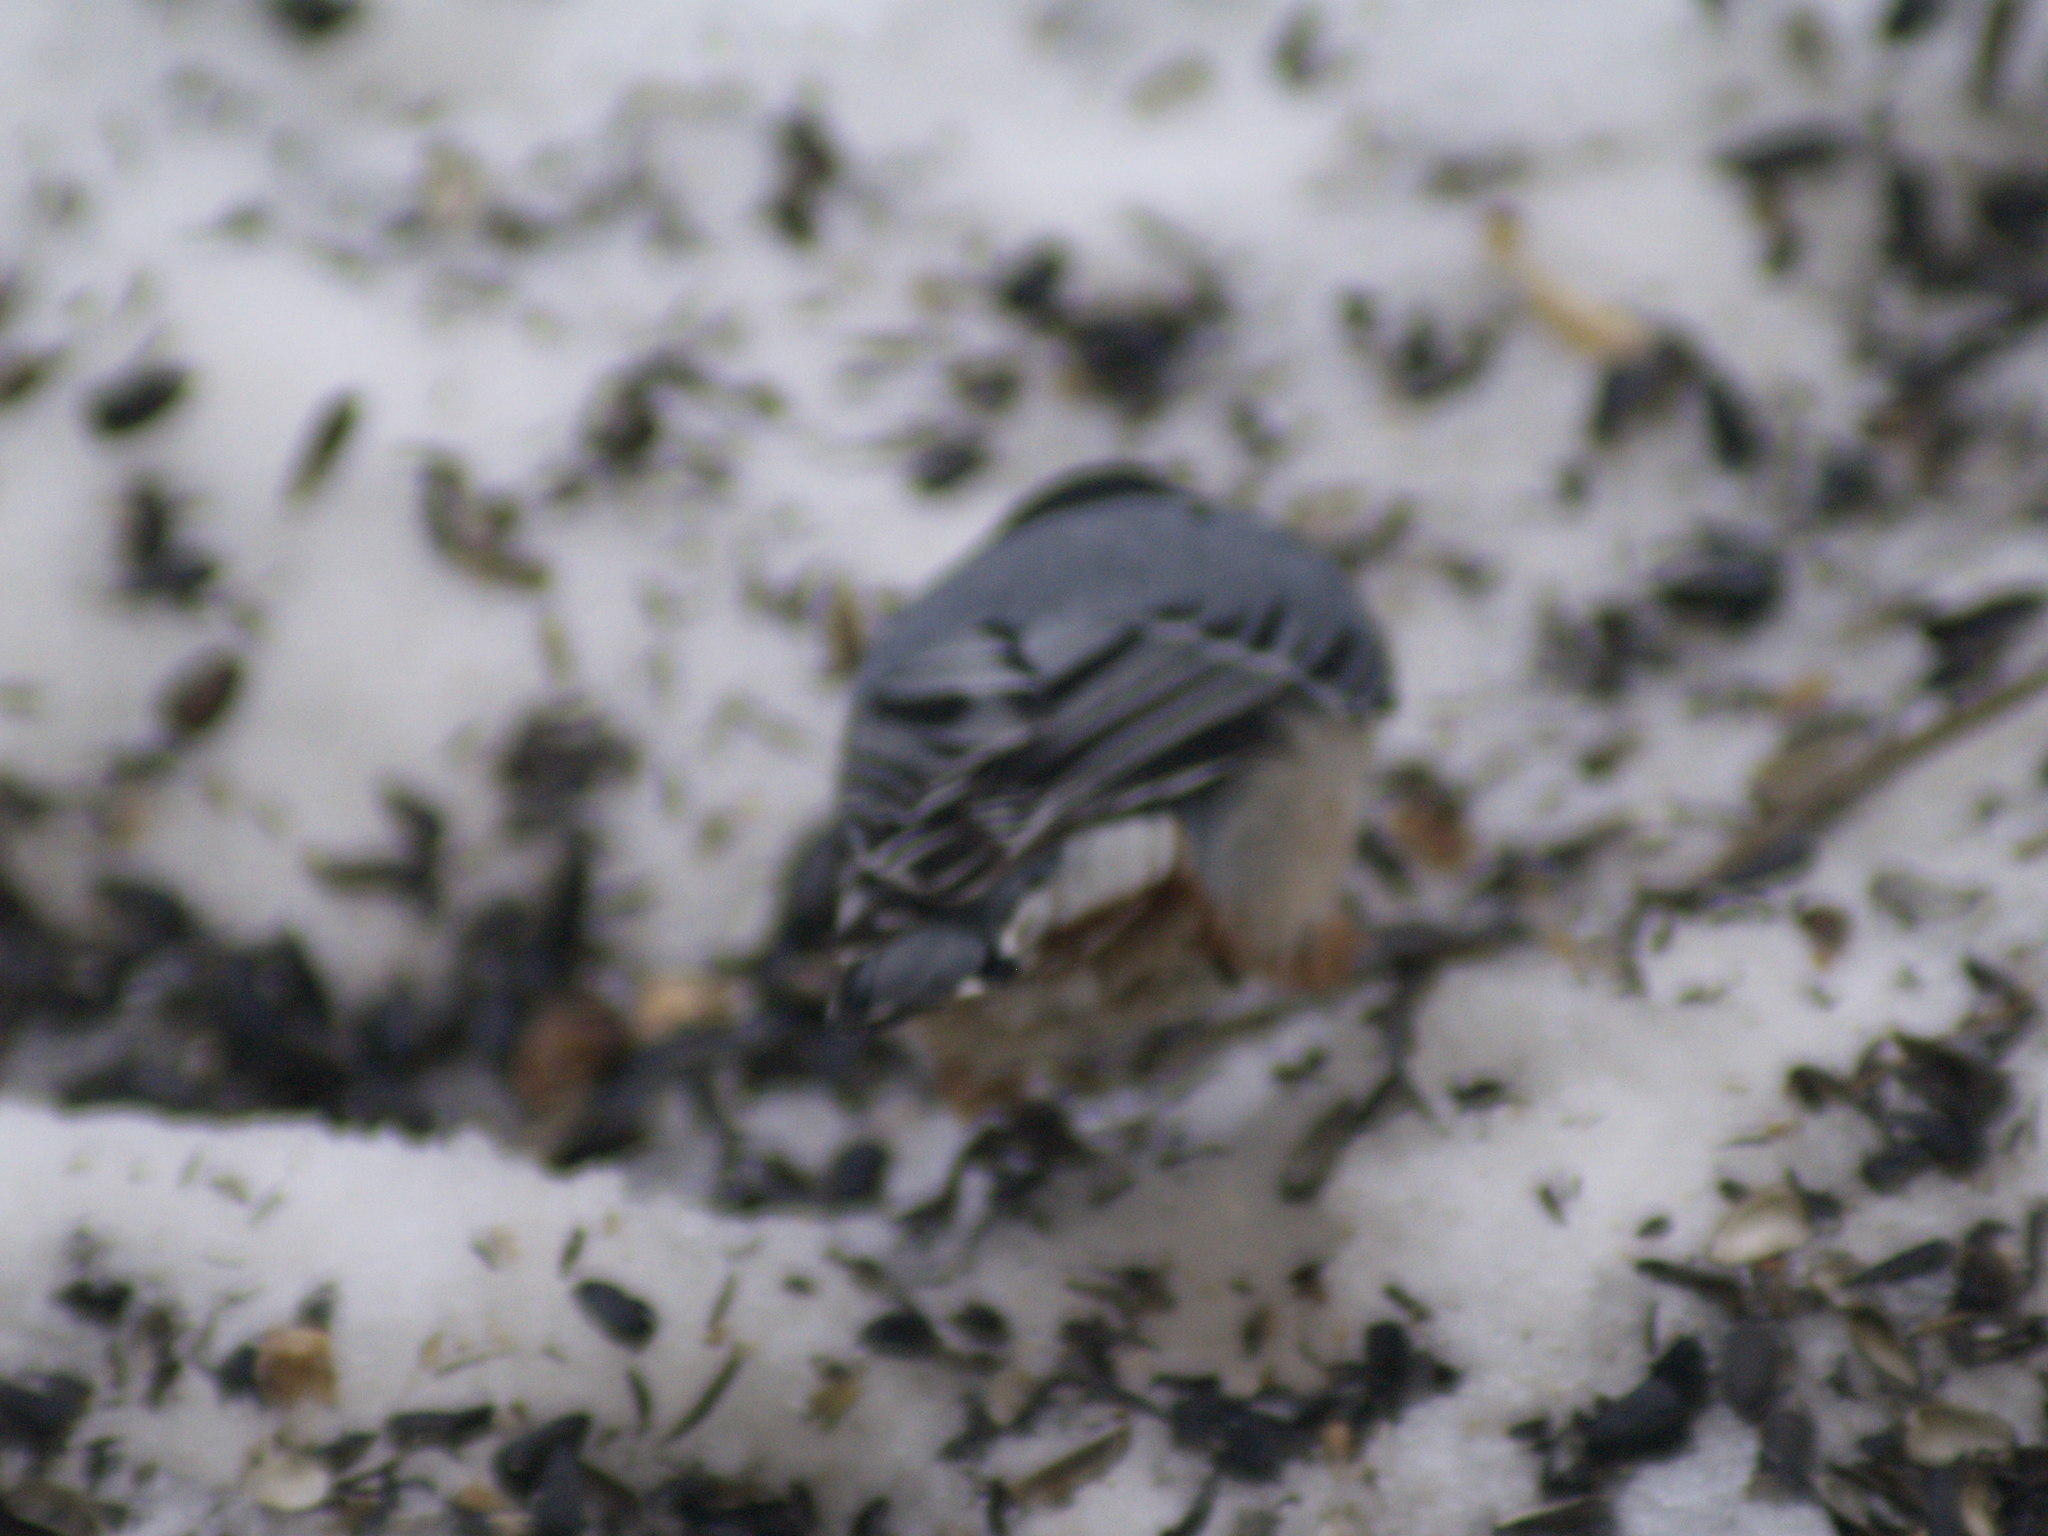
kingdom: Animalia
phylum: Chordata
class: Aves
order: Passeriformes
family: Sittidae
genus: Sitta
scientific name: Sitta carolinensis
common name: White-breasted nuthatch
